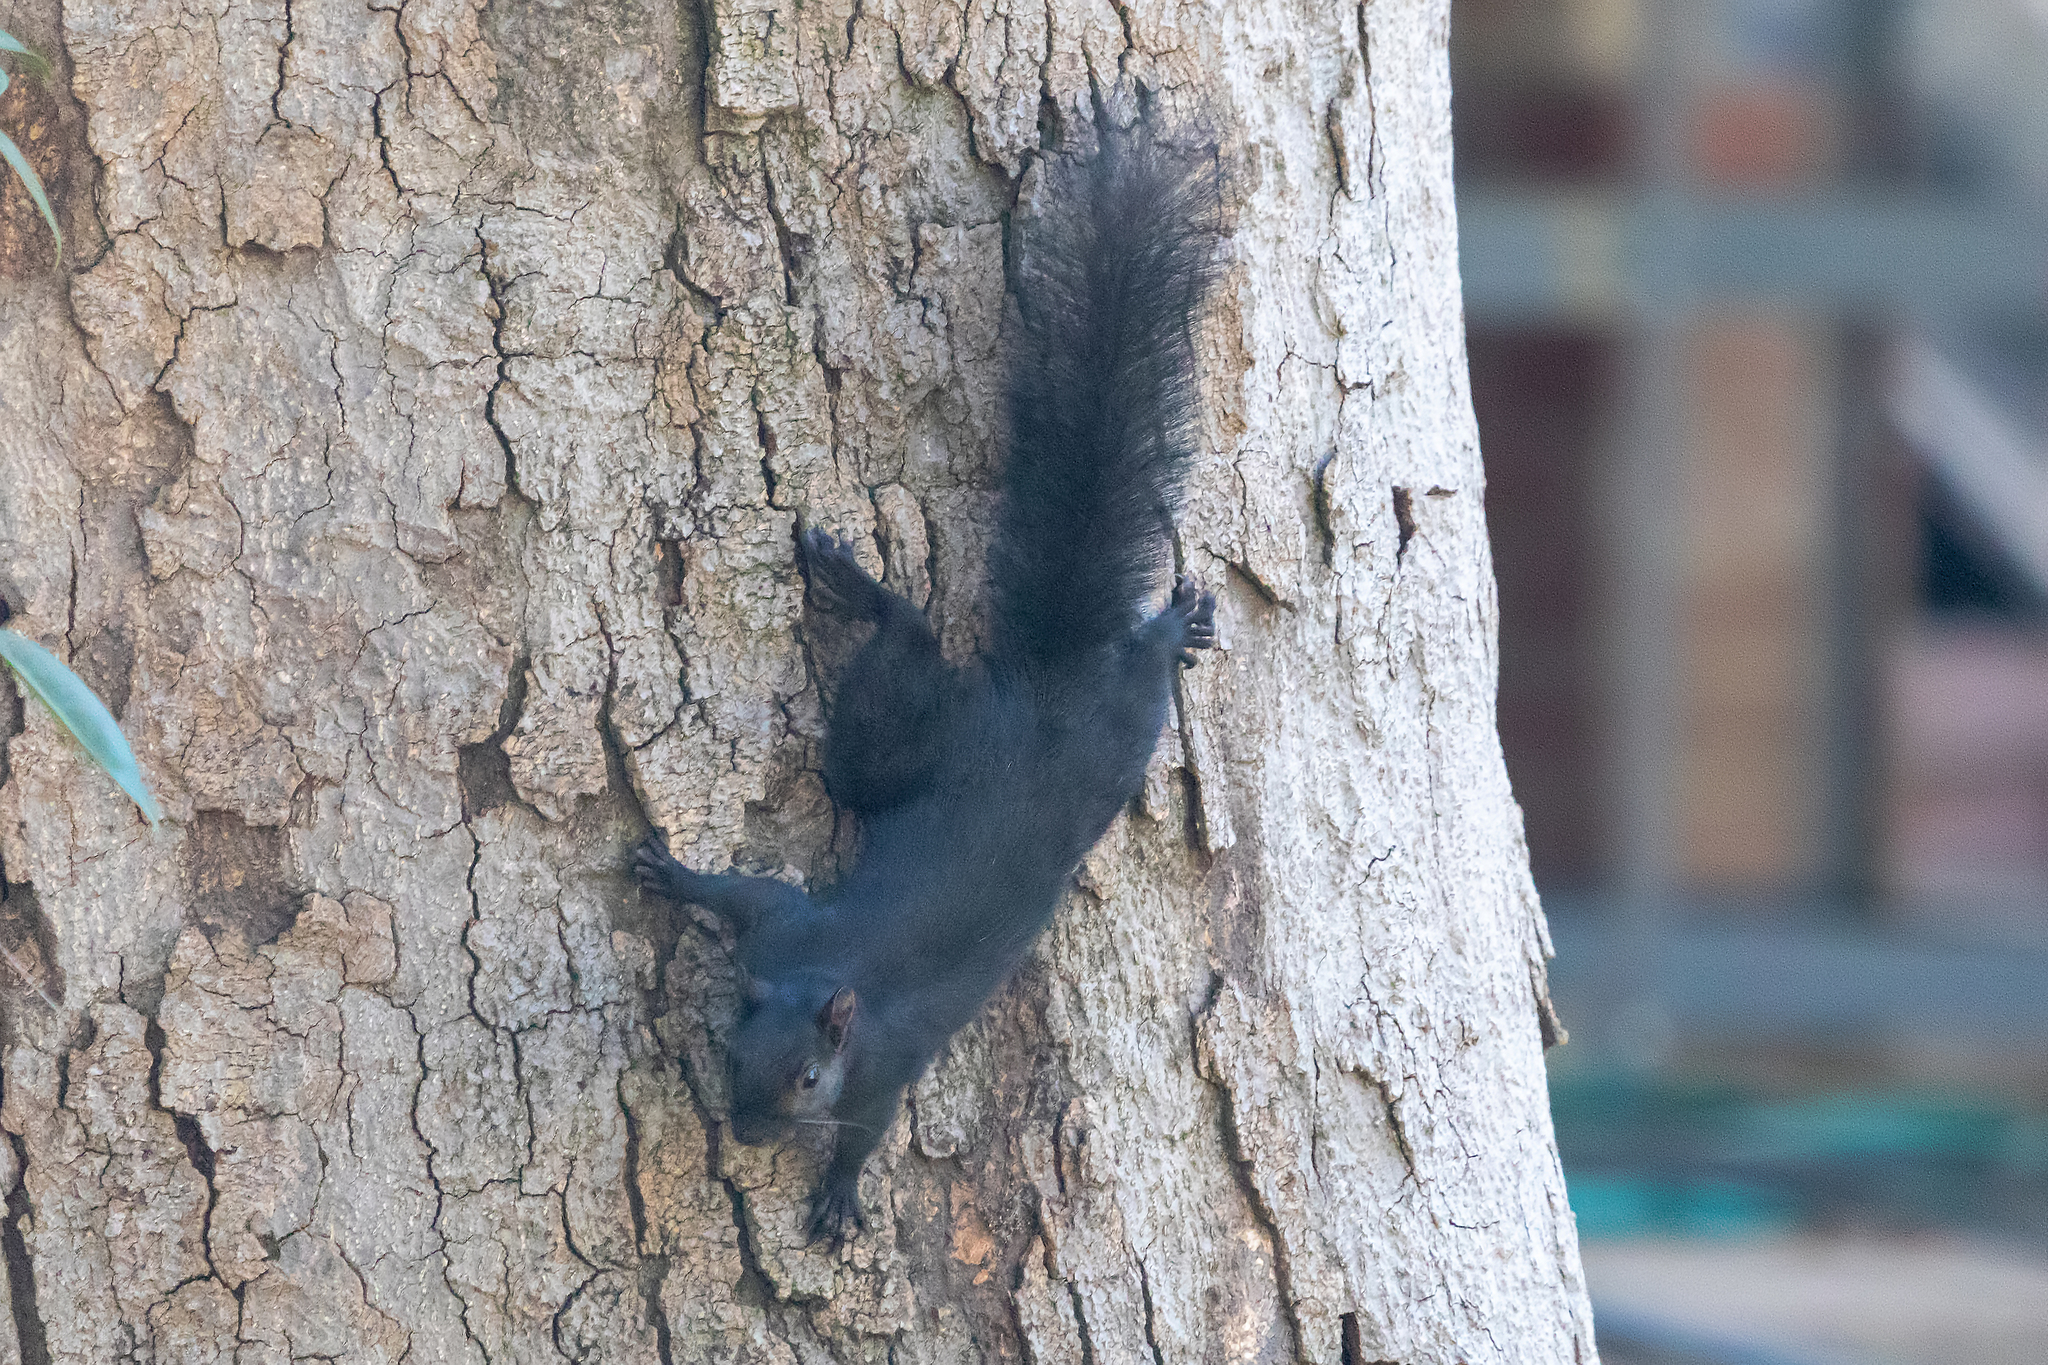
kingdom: Animalia
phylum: Chordata
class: Mammalia
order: Rodentia
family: Sciuridae
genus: Sciurus
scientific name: Sciurus carolinensis
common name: Eastern gray squirrel
